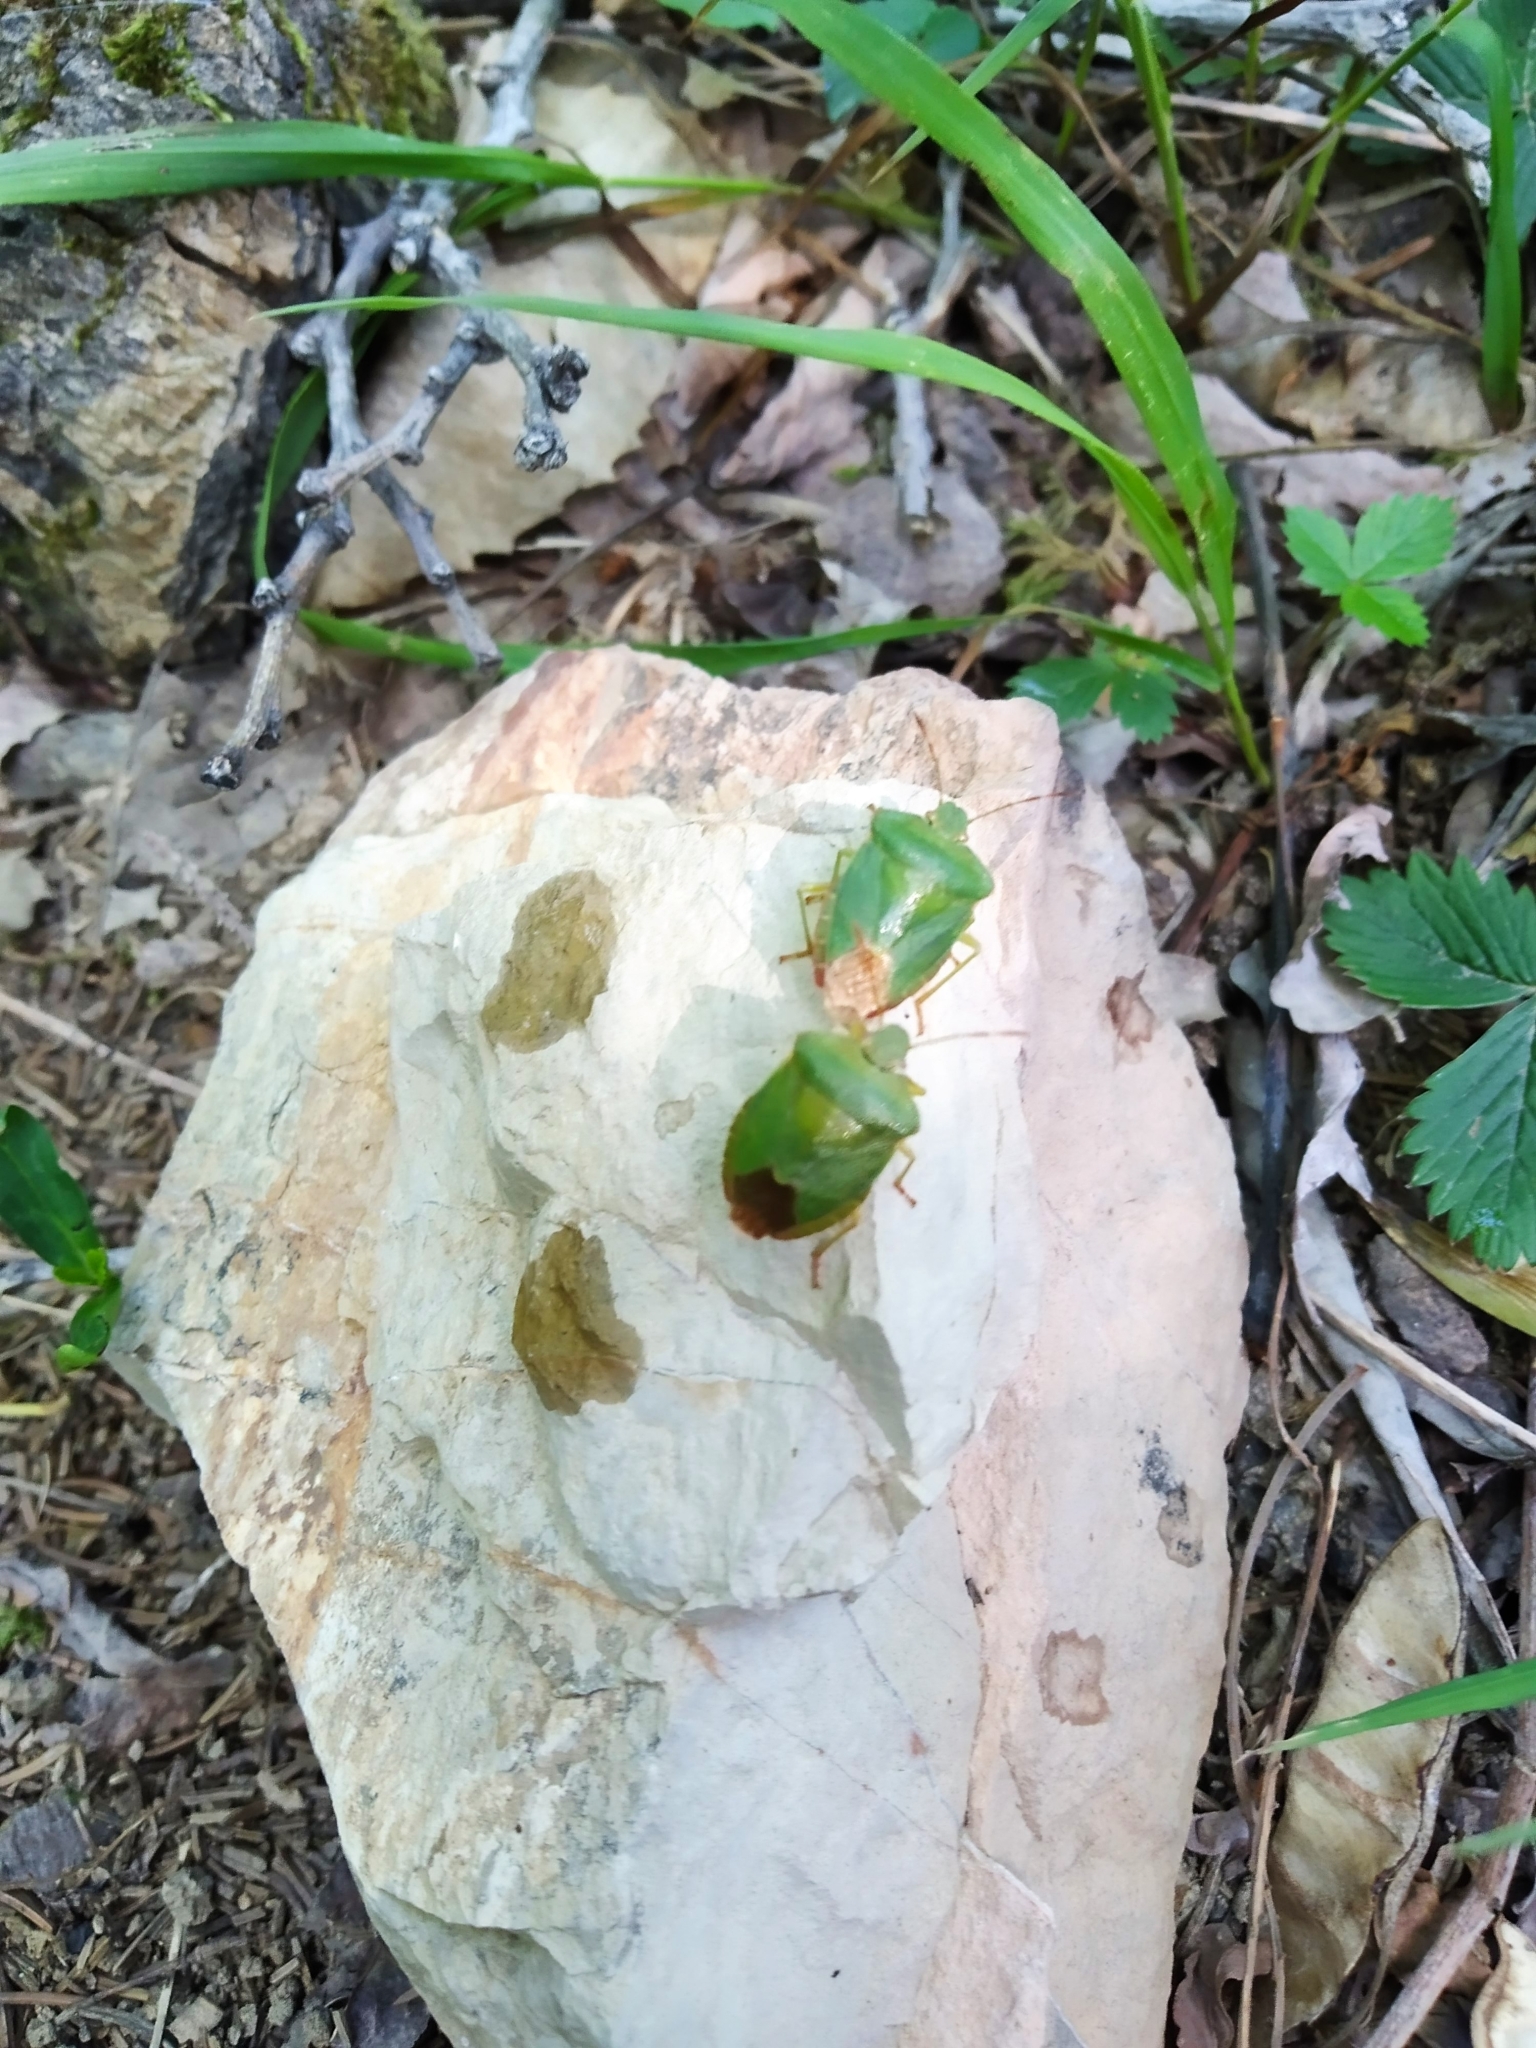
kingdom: Animalia
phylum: Arthropoda
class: Insecta
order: Hemiptera
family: Pentatomidae
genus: Palomena
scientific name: Palomena prasina
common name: Green shieldbug
